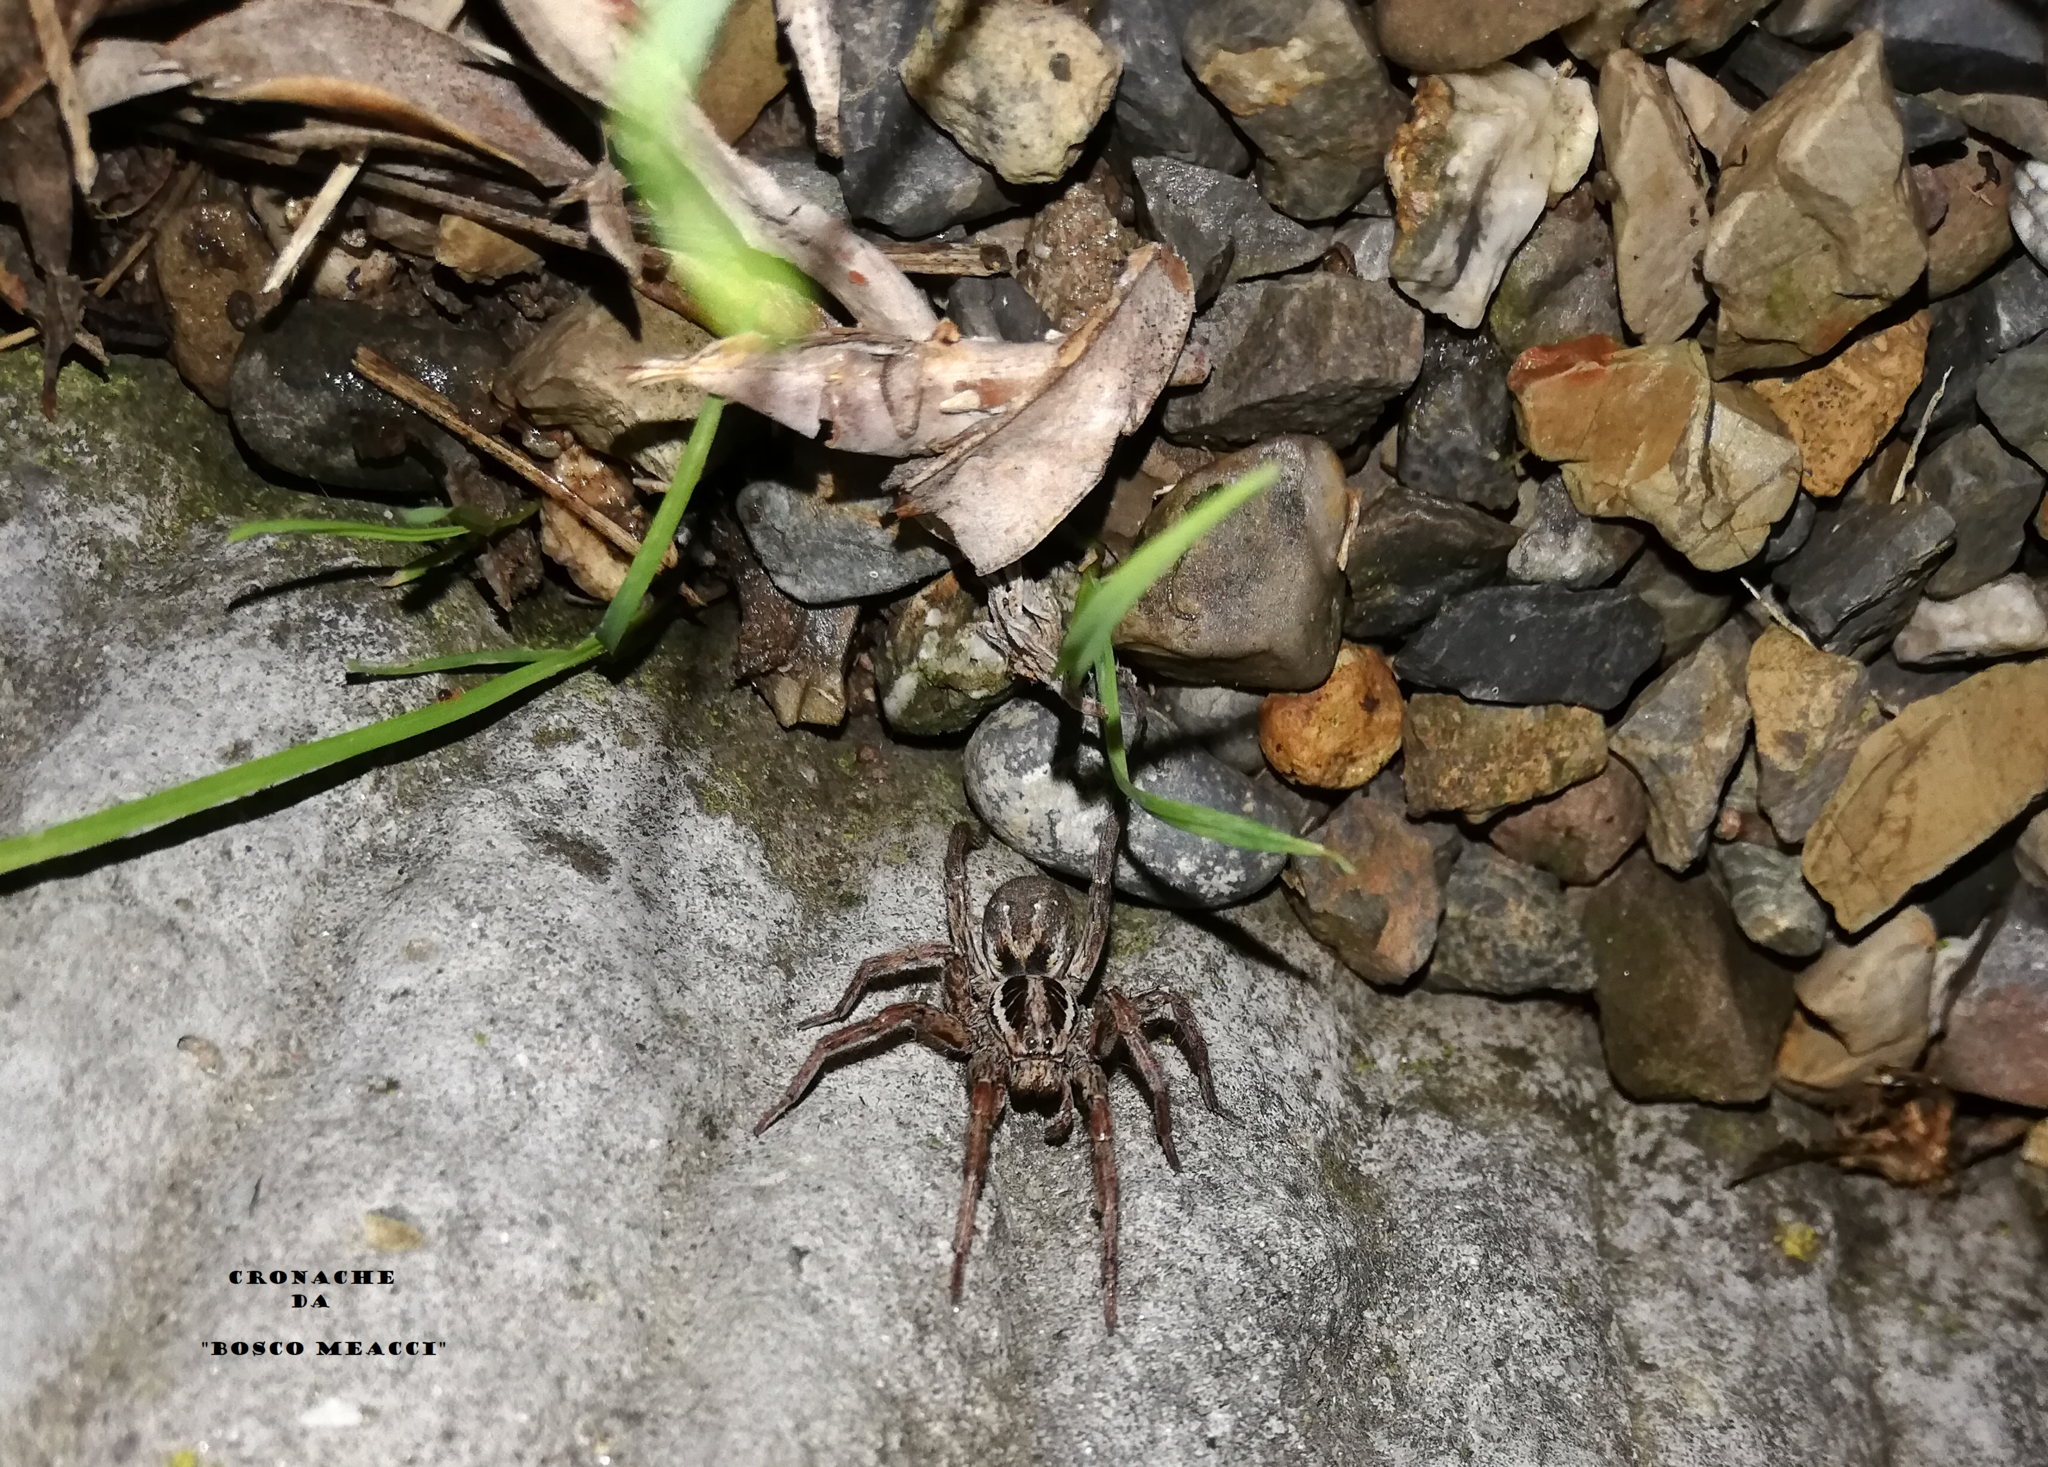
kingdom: Animalia
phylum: Arthropoda
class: Arachnida
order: Araneae
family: Lycosidae
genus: Hogna
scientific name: Hogna radiata
